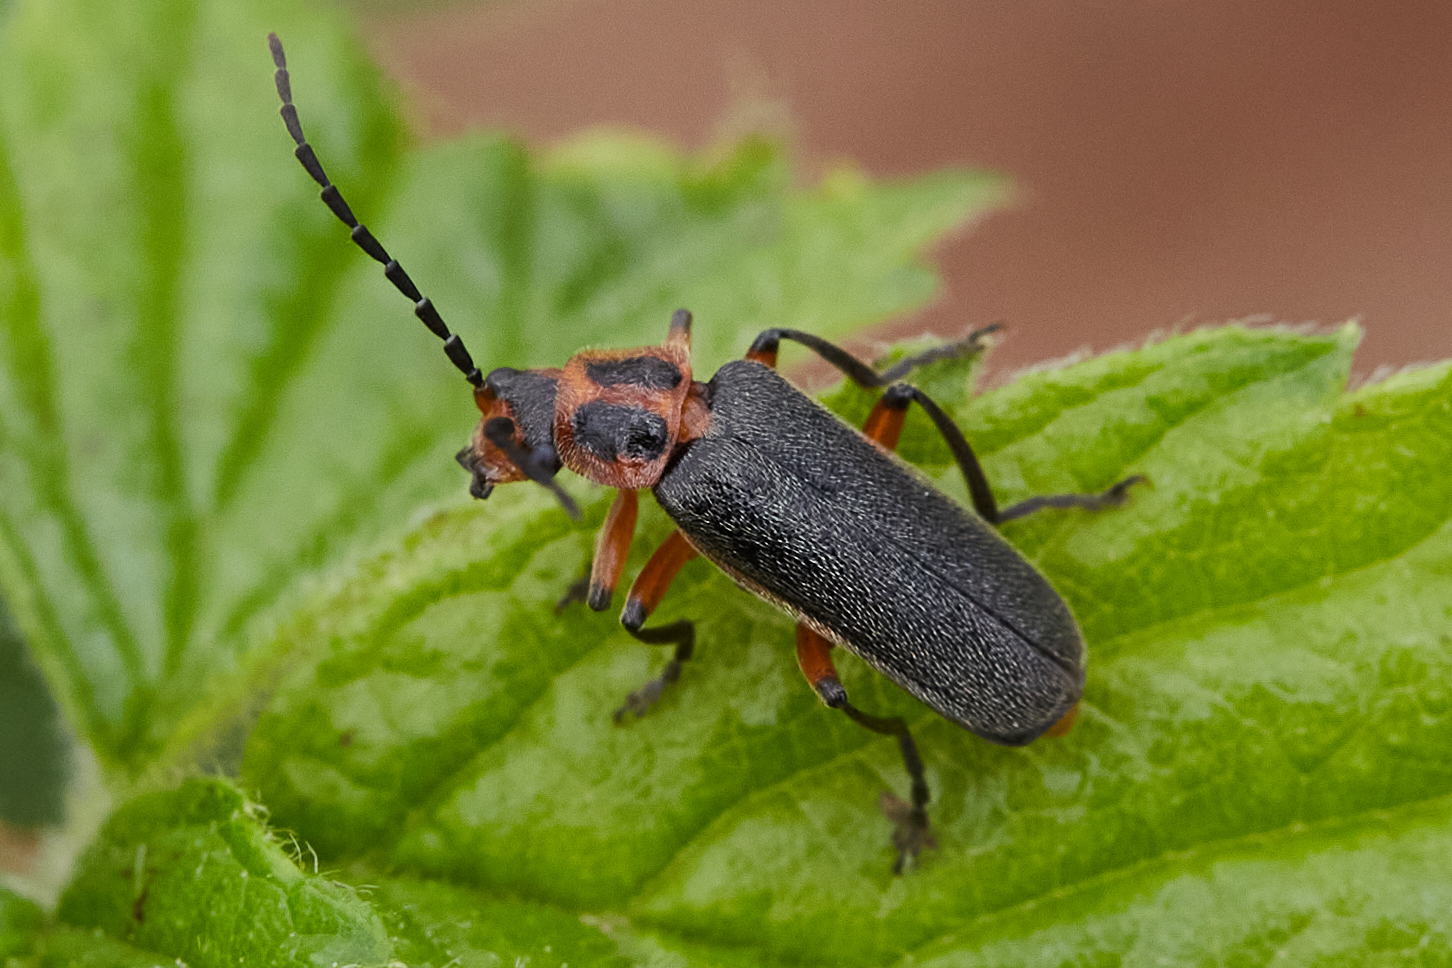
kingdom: Animalia
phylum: Arthropoda
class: Insecta
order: Coleoptera
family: Cantharidae
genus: Atalantycha
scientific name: Atalantycha bilineata
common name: Two-lined leatherwing
